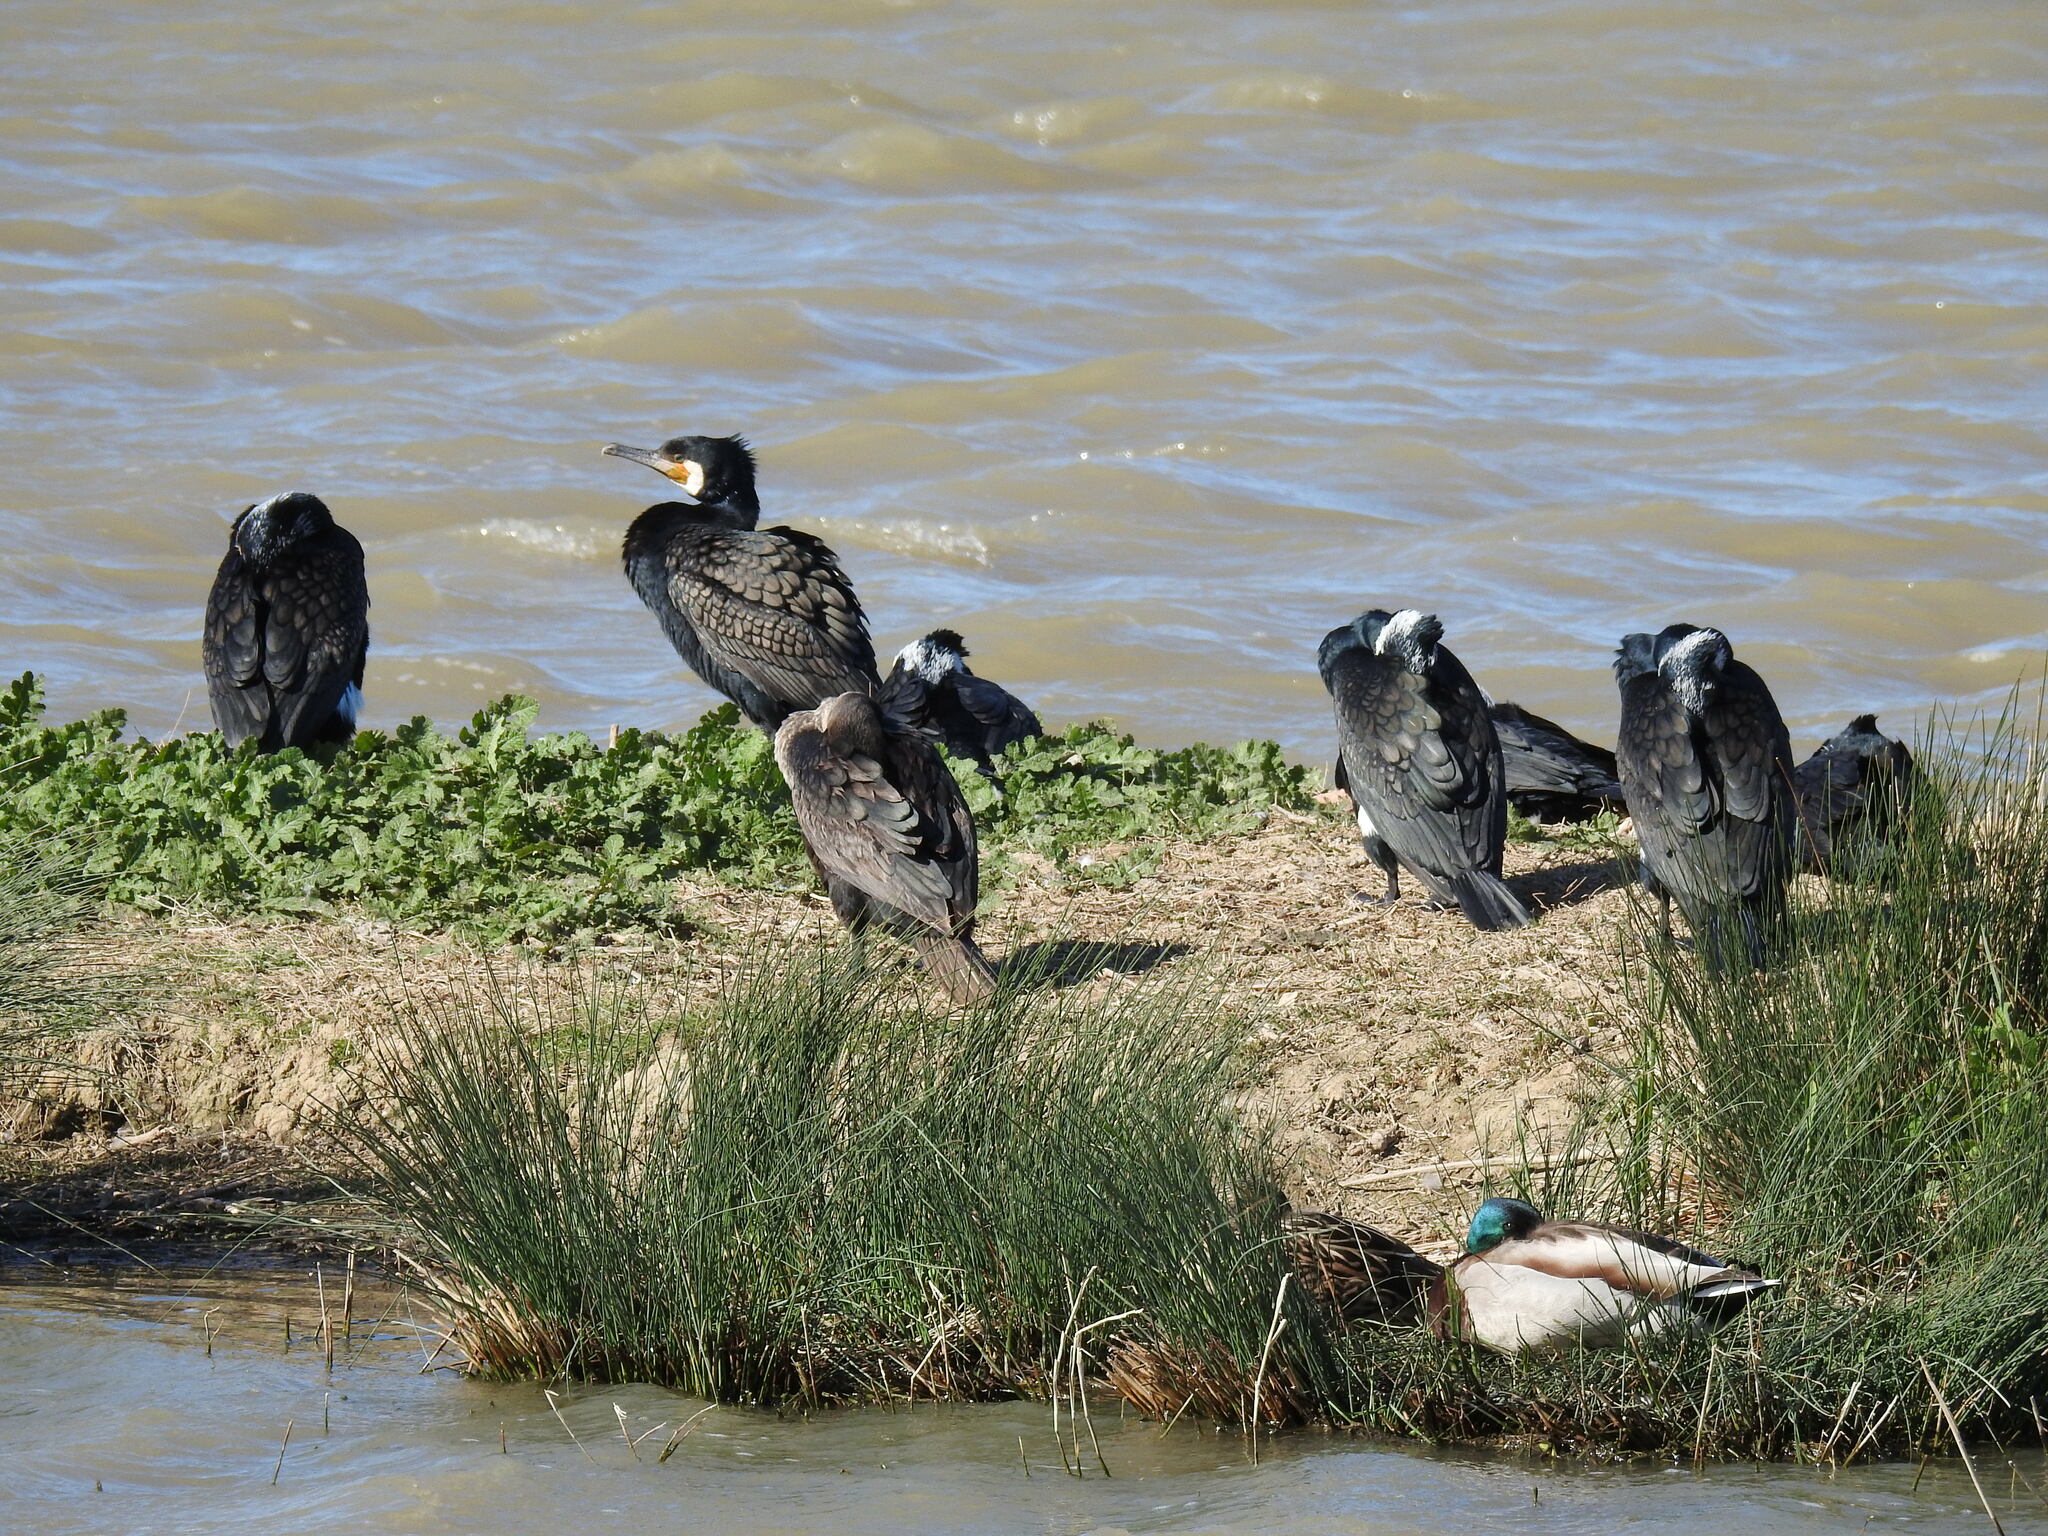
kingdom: Animalia
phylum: Chordata
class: Aves
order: Suliformes
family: Phalacrocoracidae
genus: Phalacrocorax
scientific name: Phalacrocorax carbo
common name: Great cormorant
